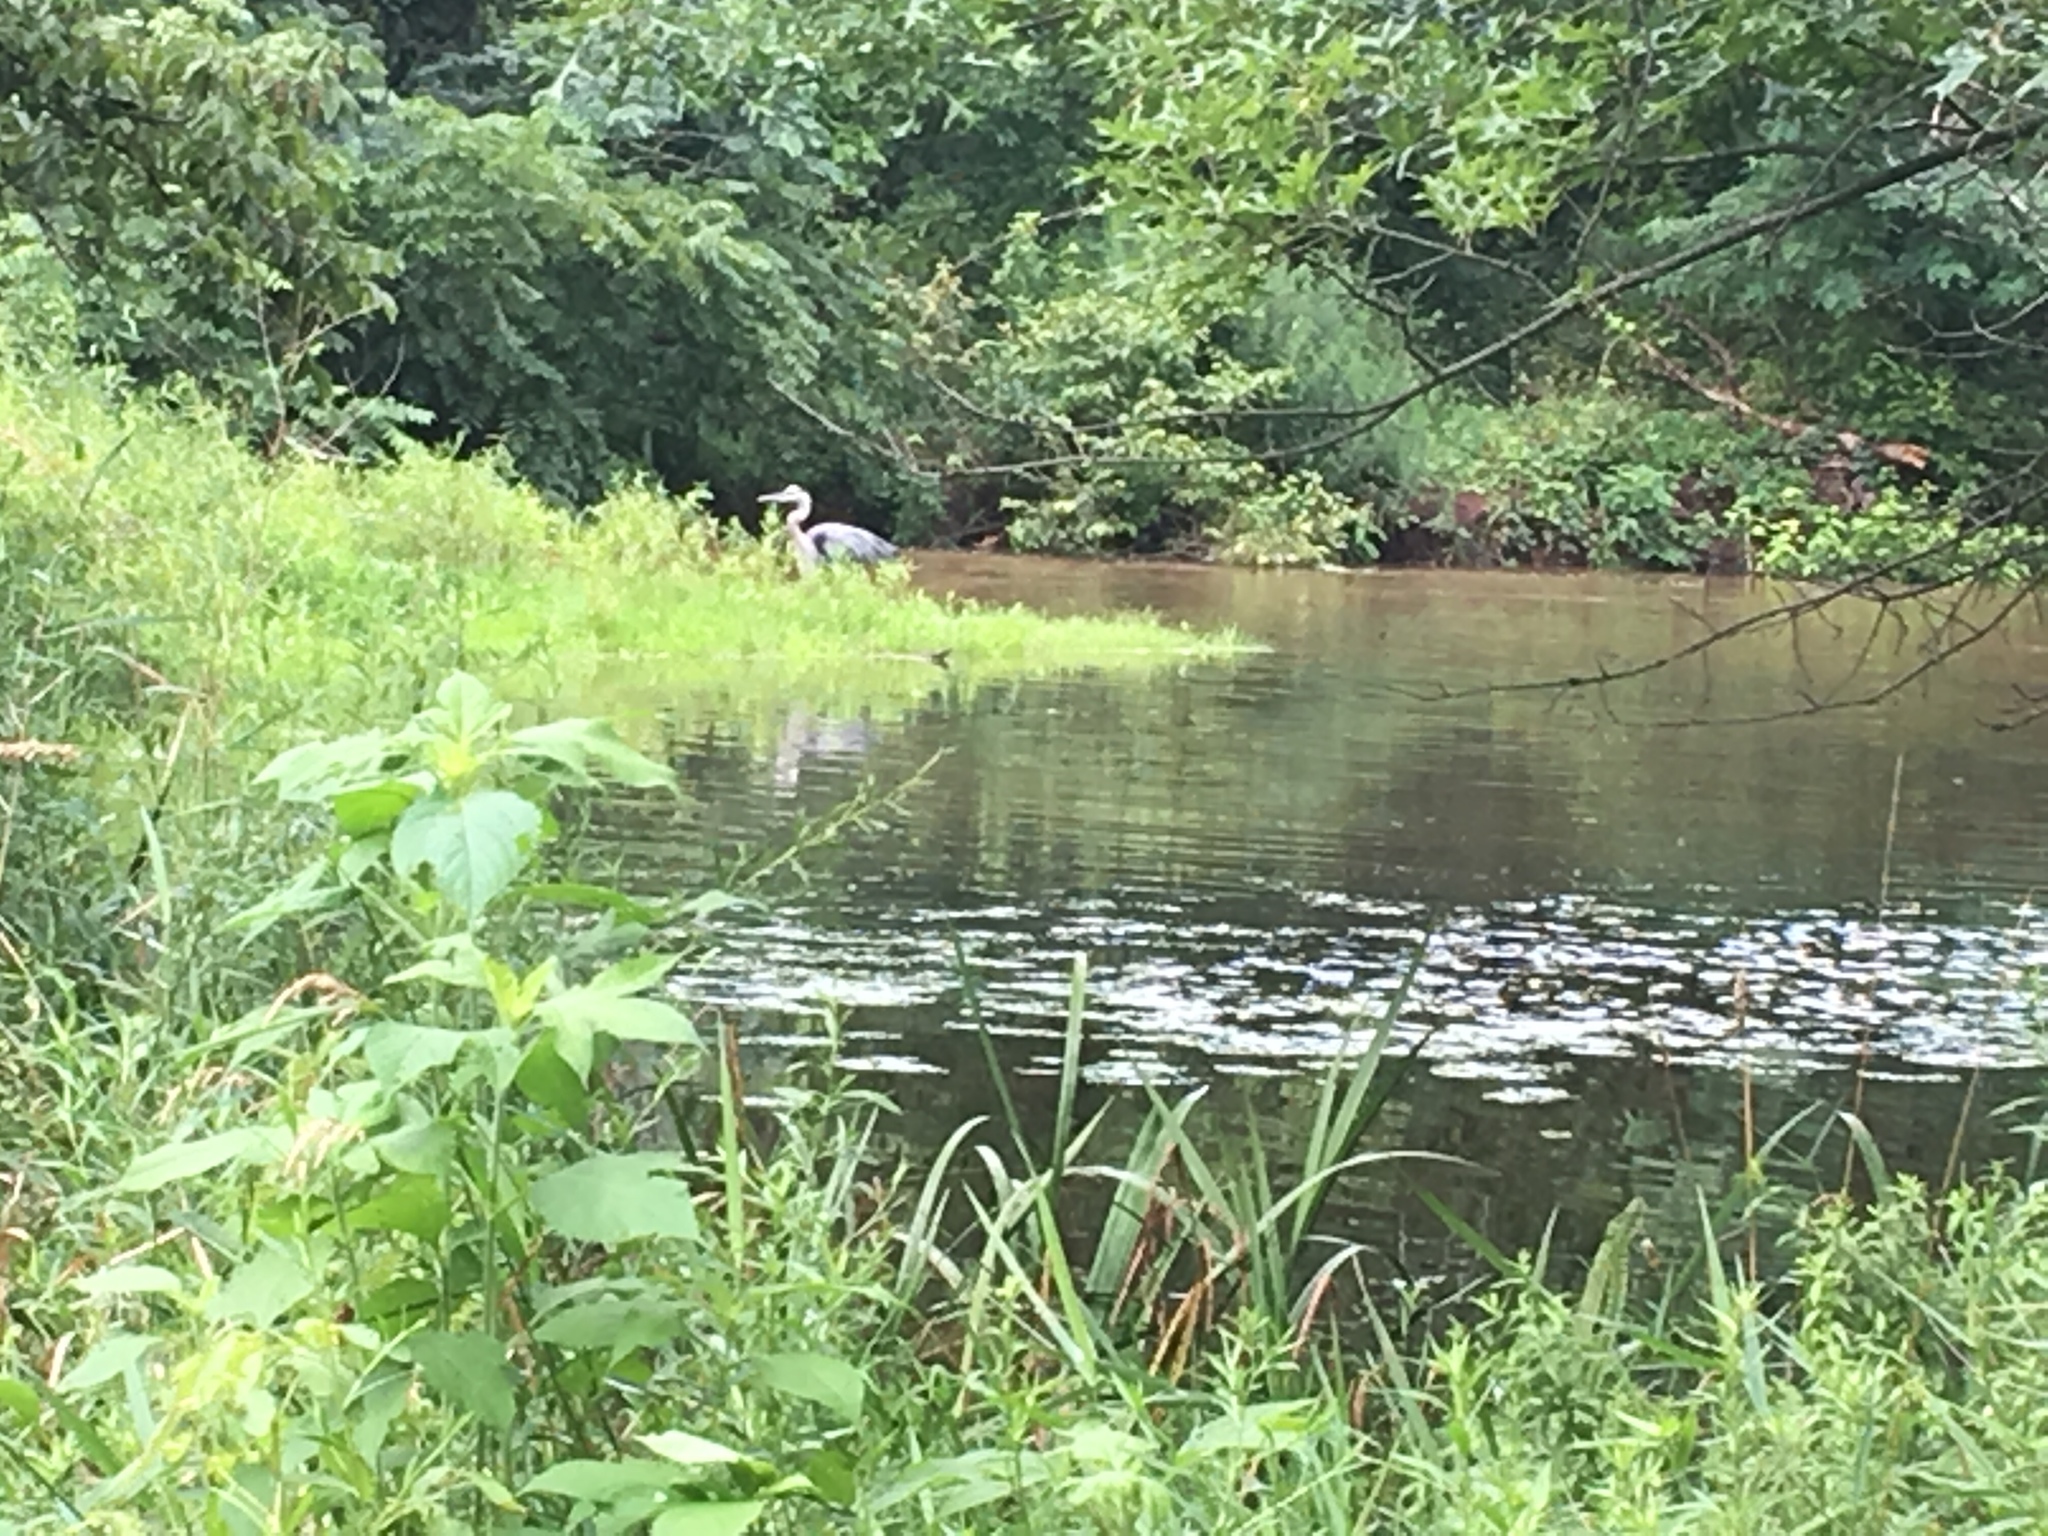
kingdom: Animalia
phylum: Chordata
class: Aves
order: Pelecaniformes
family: Ardeidae
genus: Ardea
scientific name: Ardea herodias
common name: Great blue heron
